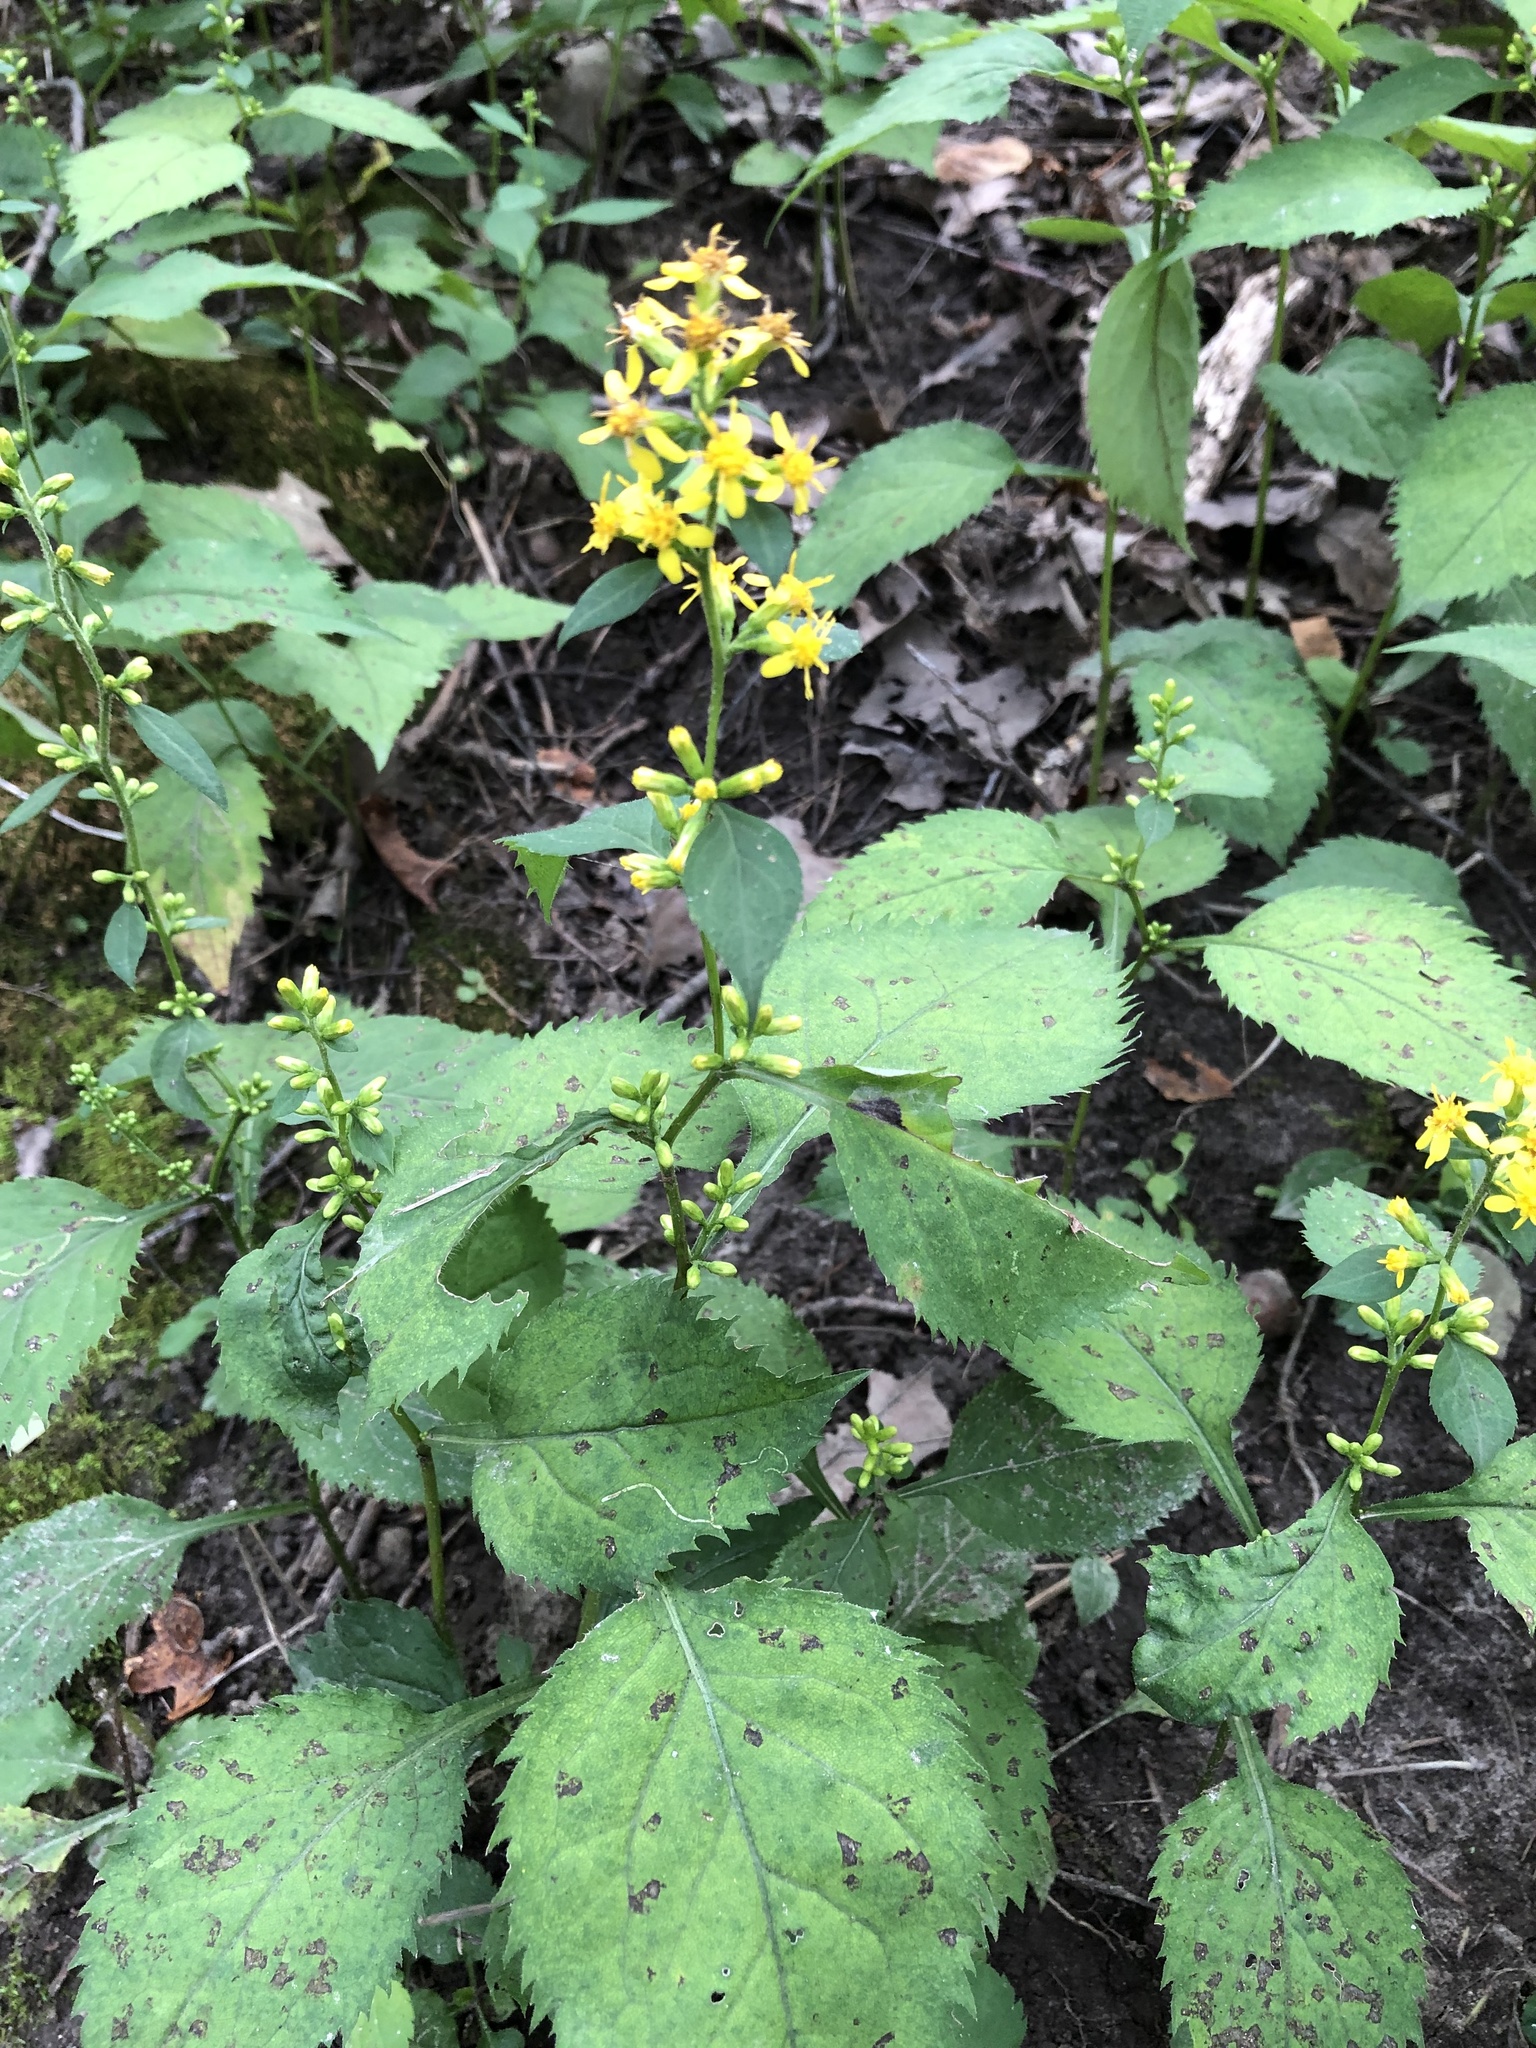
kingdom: Plantae
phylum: Tracheophyta
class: Magnoliopsida
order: Asterales
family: Asteraceae
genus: Solidago
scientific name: Solidago flexicaulis
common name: Zig-zag goldenrod
